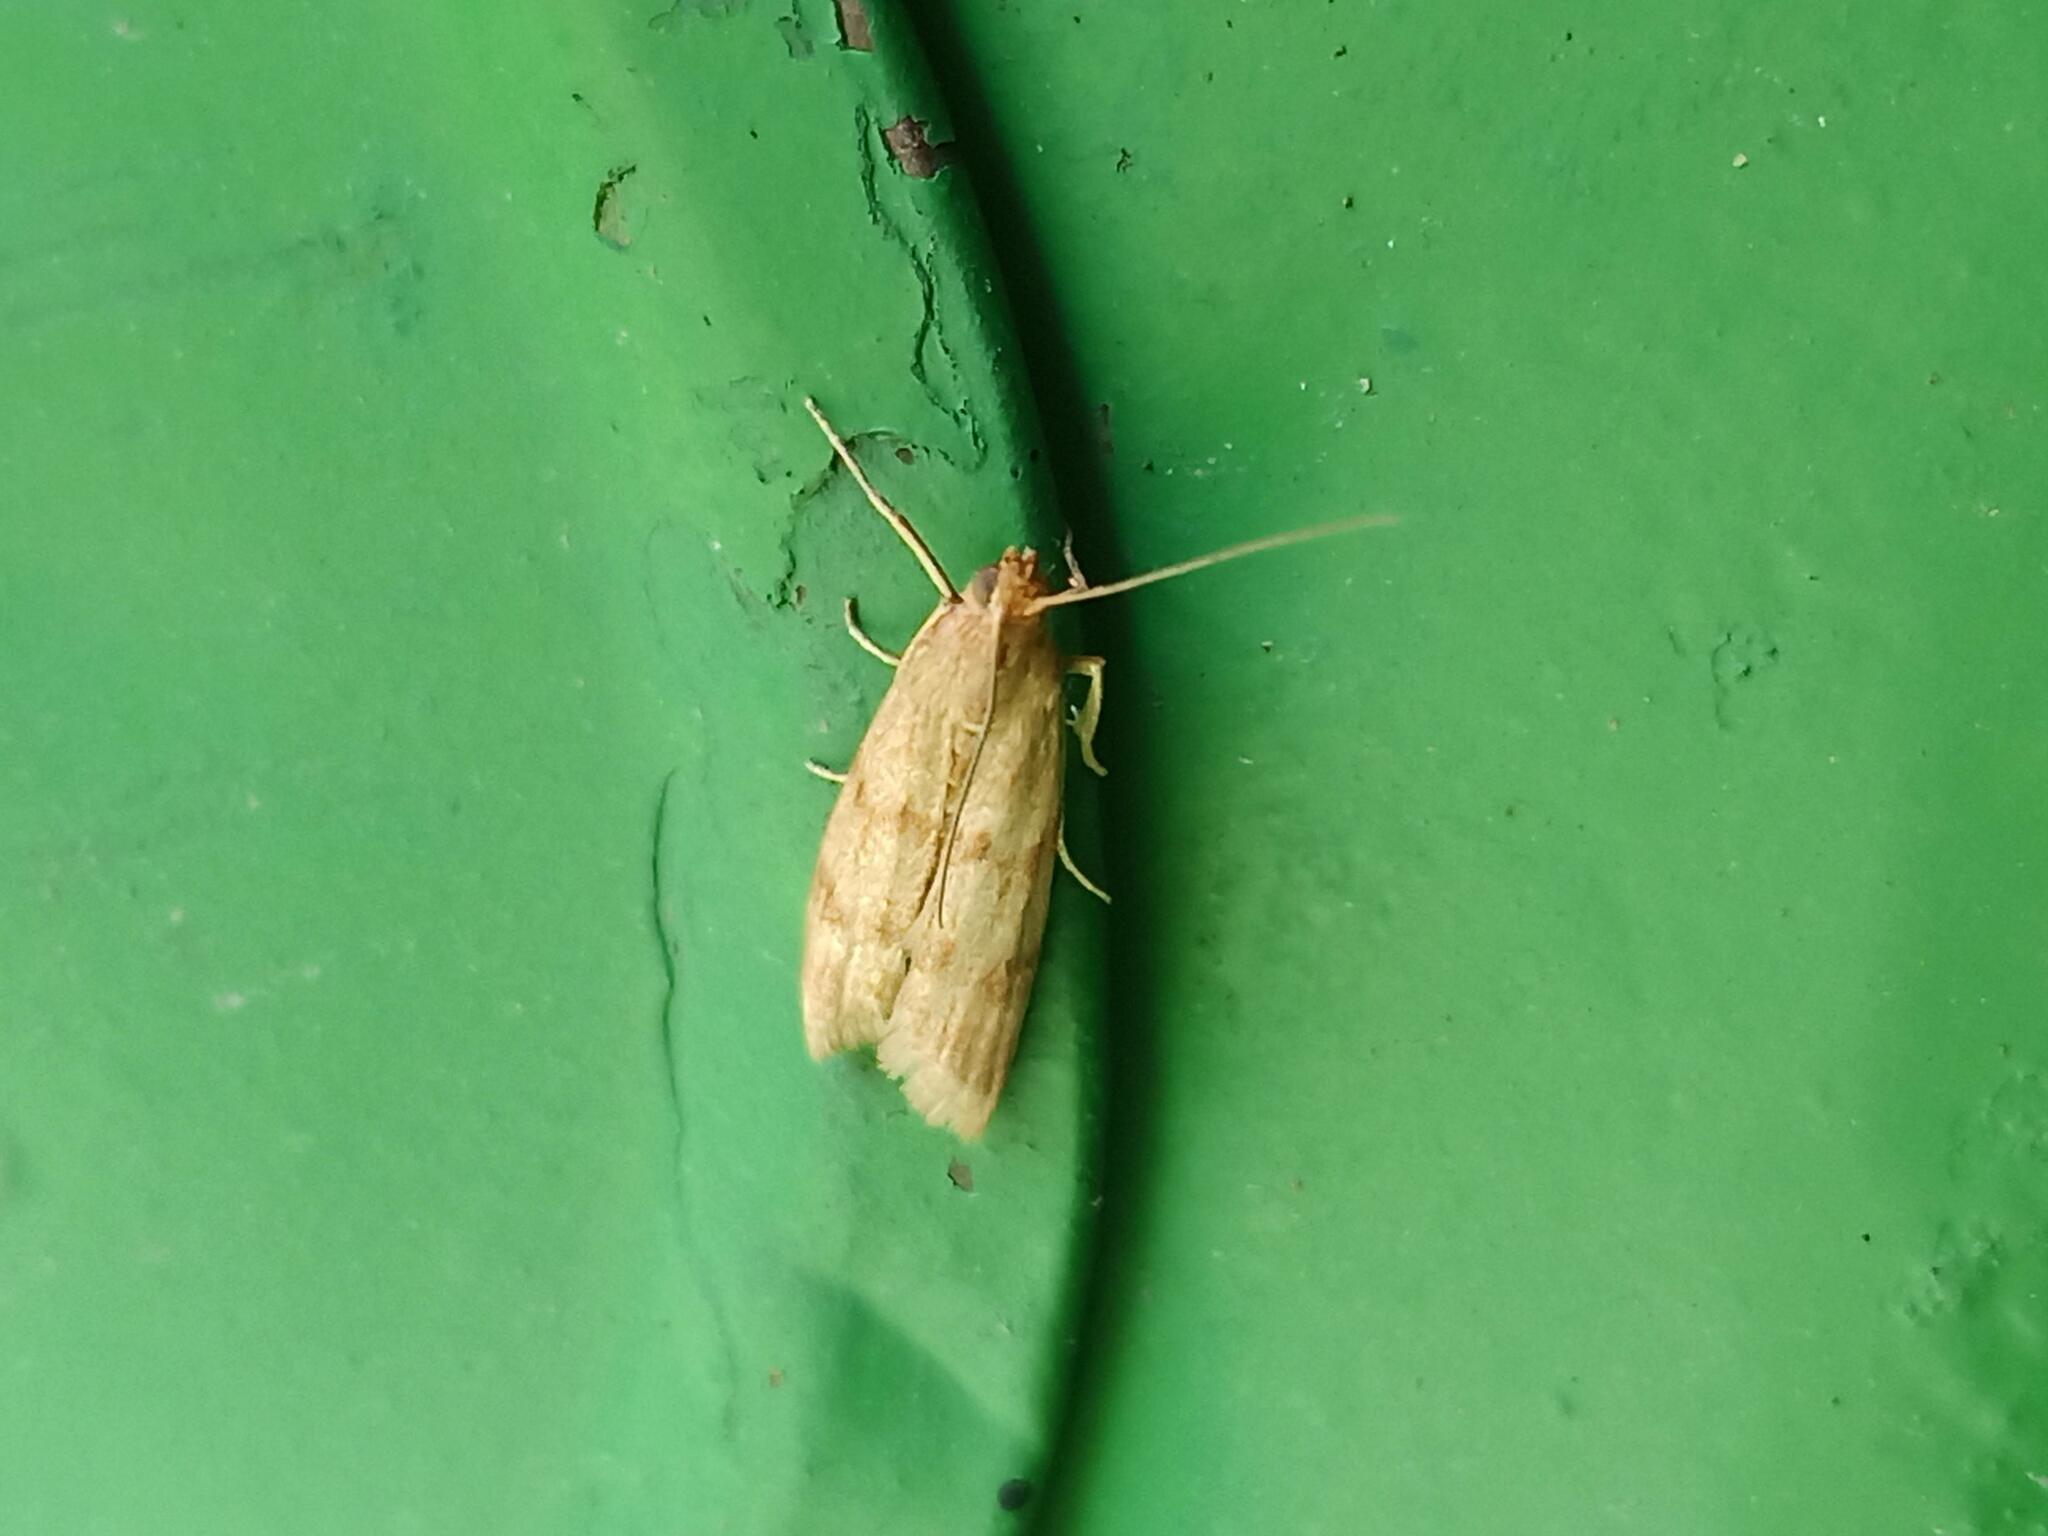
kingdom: Animalia
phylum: Arthropoda
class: Insecta
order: Lepidoptera
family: Pyralidae
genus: Homoeosoma
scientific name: Homoeosoma sinuella
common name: Twin-barred knot-horn
